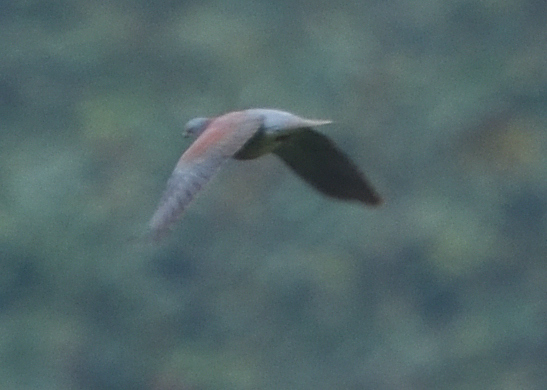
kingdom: Animalia
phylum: Chordata
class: Aves
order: Columbiformes
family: Columbidae
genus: Patagioenas
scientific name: Patagioenas cayennensis
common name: Pale-vented pigeon
